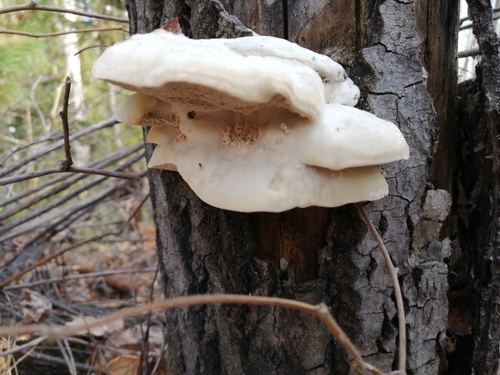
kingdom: Fungi
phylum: Basidiomycota
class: Agaricomycetes
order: Polyporales
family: Polyporaceae
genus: Trametes
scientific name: Trametes suaveolens
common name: Fragrant bracket
